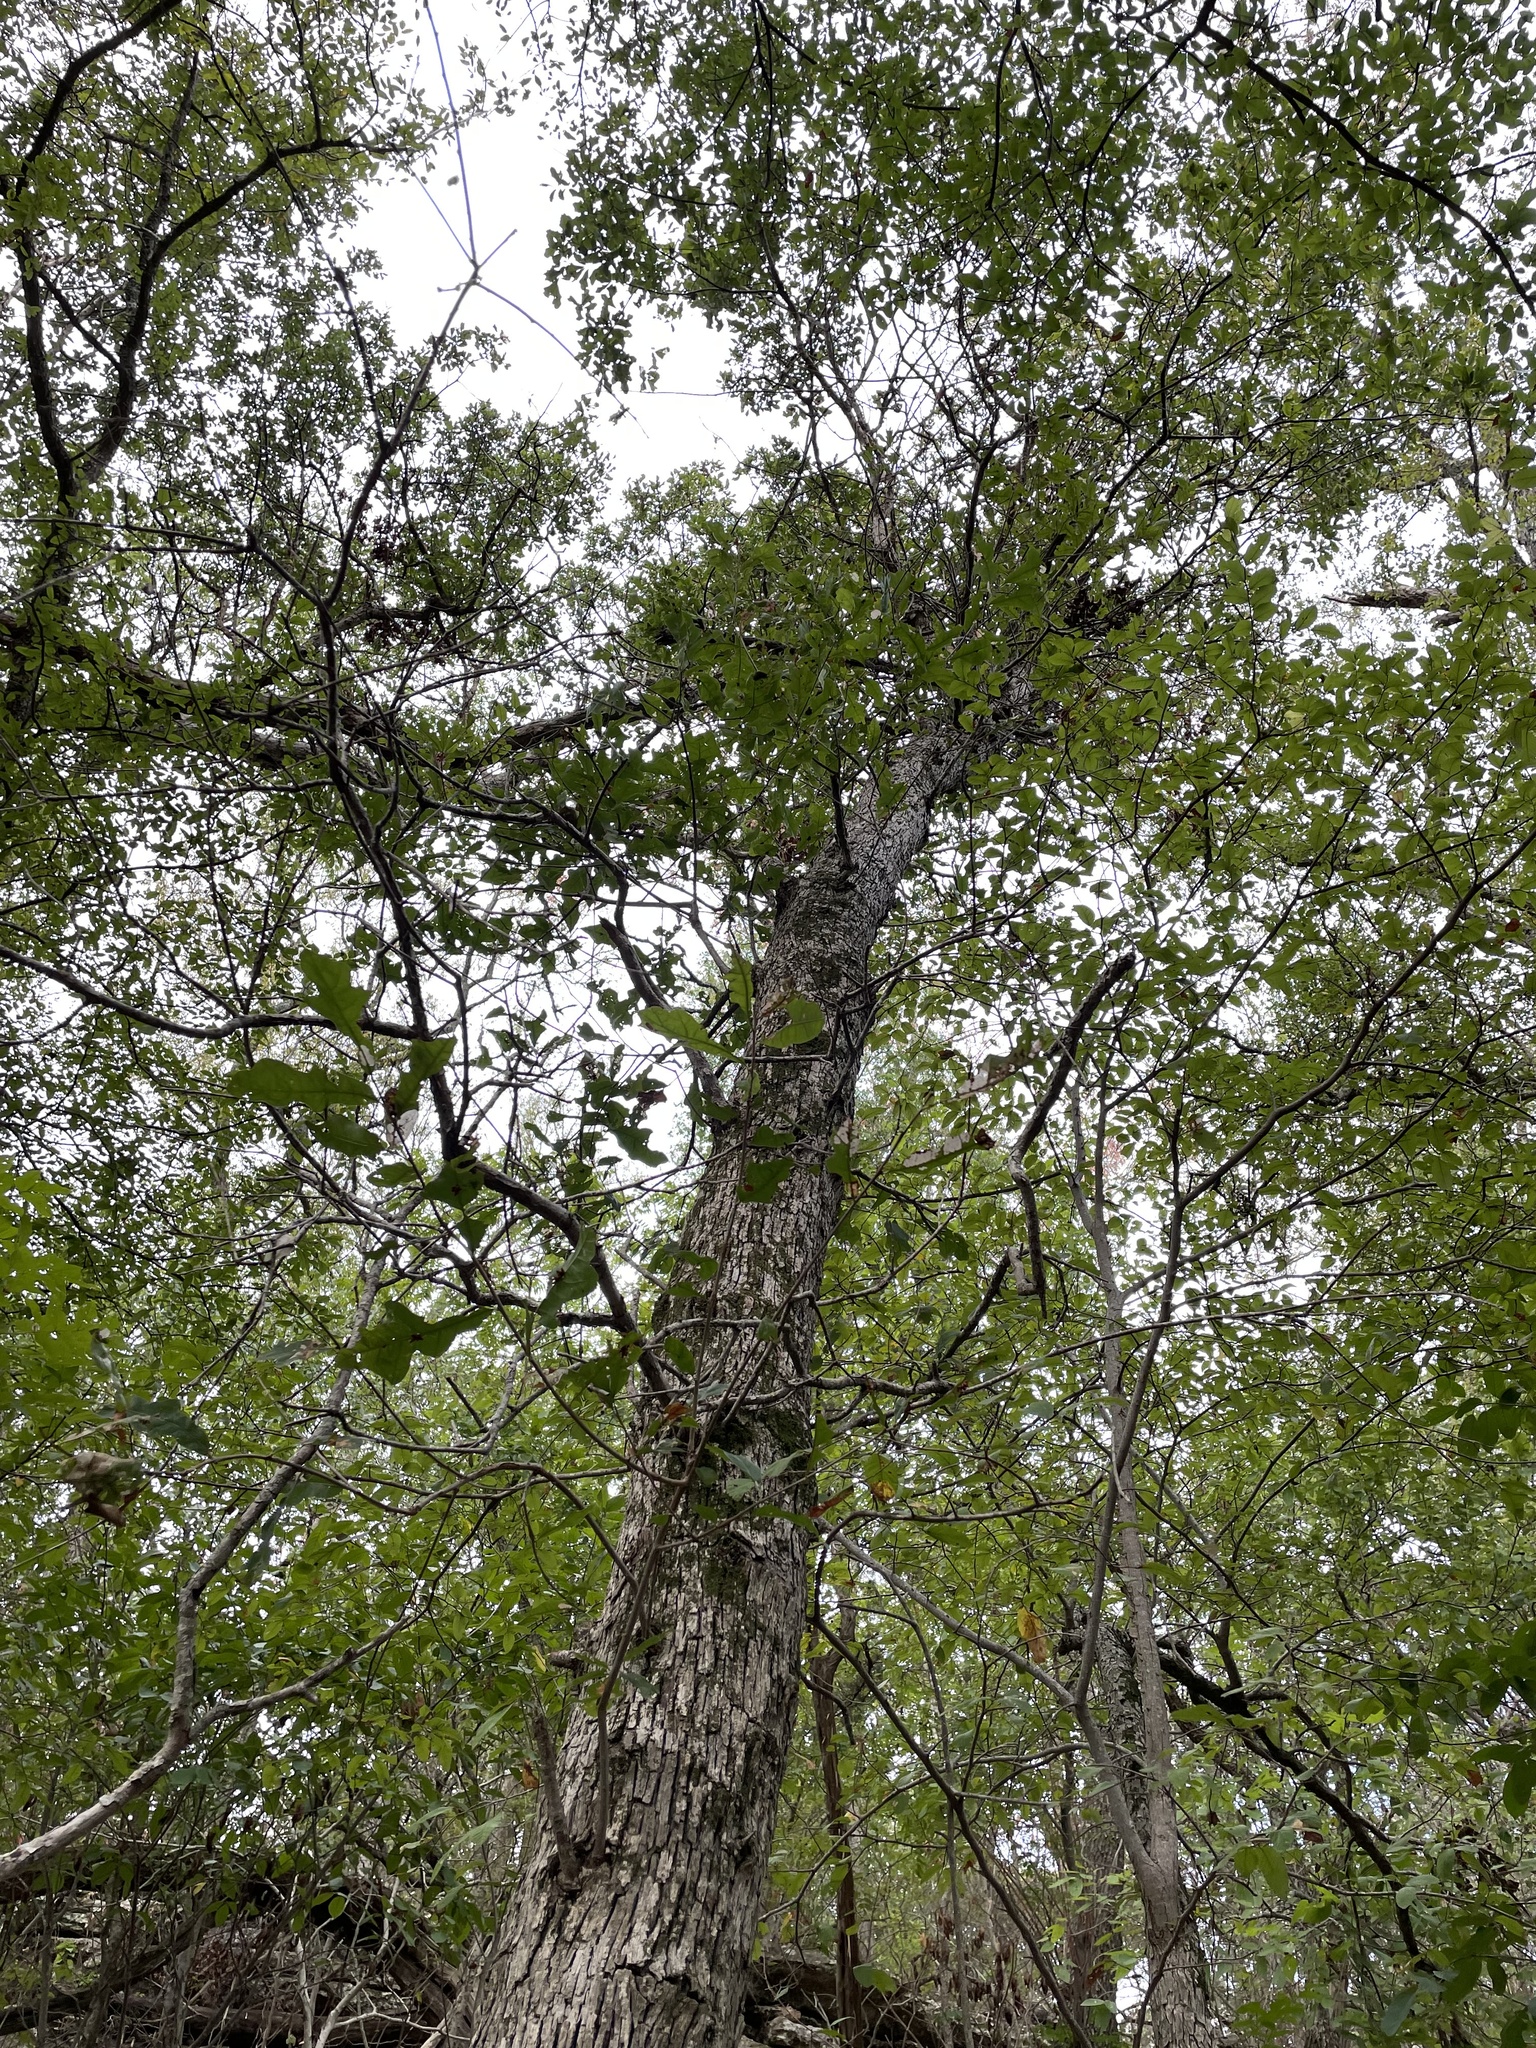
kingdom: Plantae
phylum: Tracheophyta
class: Magnoliopsida
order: Fagales
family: Fagaceae
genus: Quercus
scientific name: Quercus sinuata
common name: Durand oak
